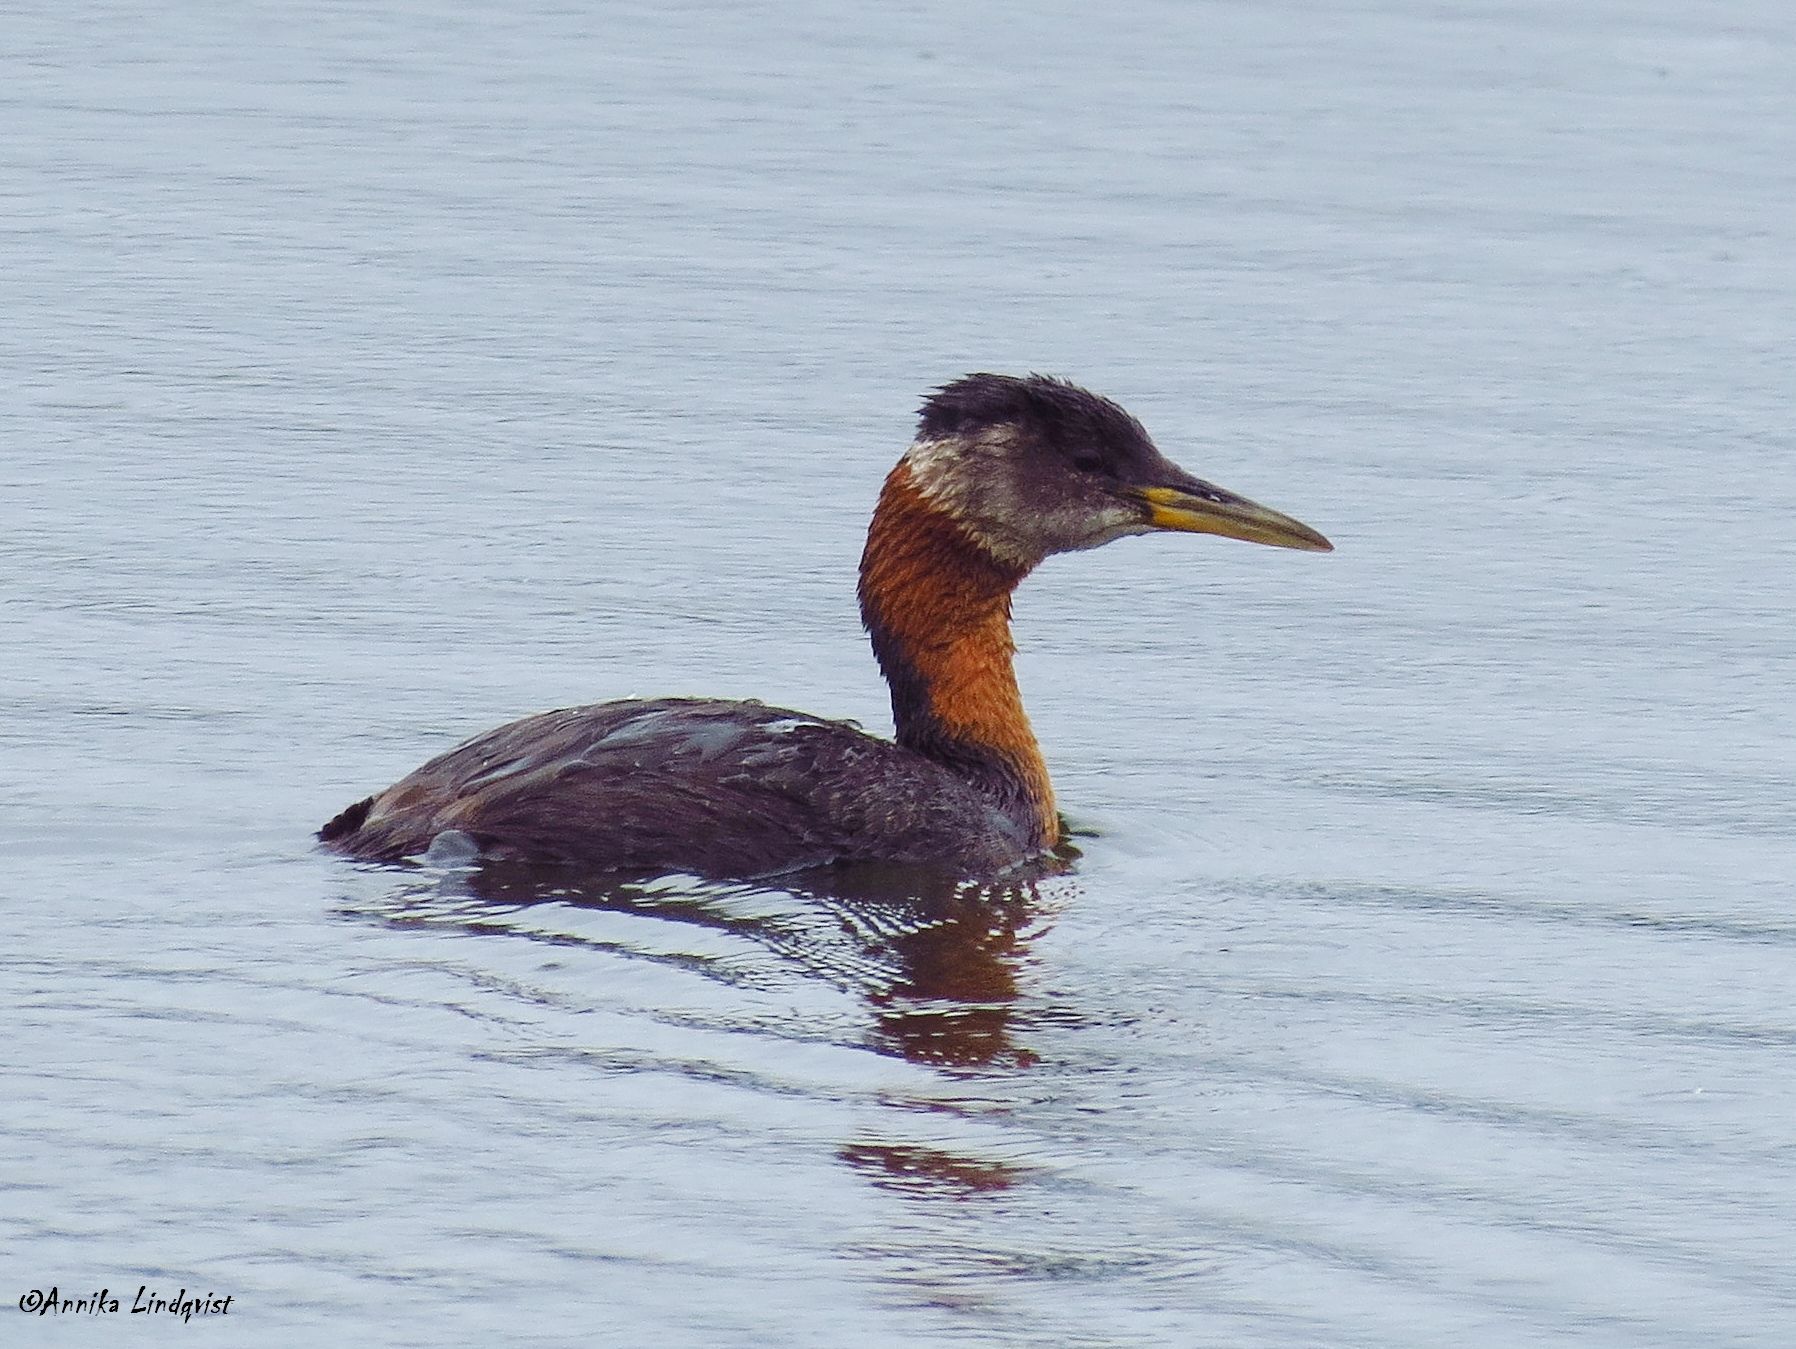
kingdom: Animalia
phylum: Chordata
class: Aves
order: Podicipediformes
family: Podicipedidae
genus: Podiceps
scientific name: Podiceps grisegena
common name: Red-necked grebe
